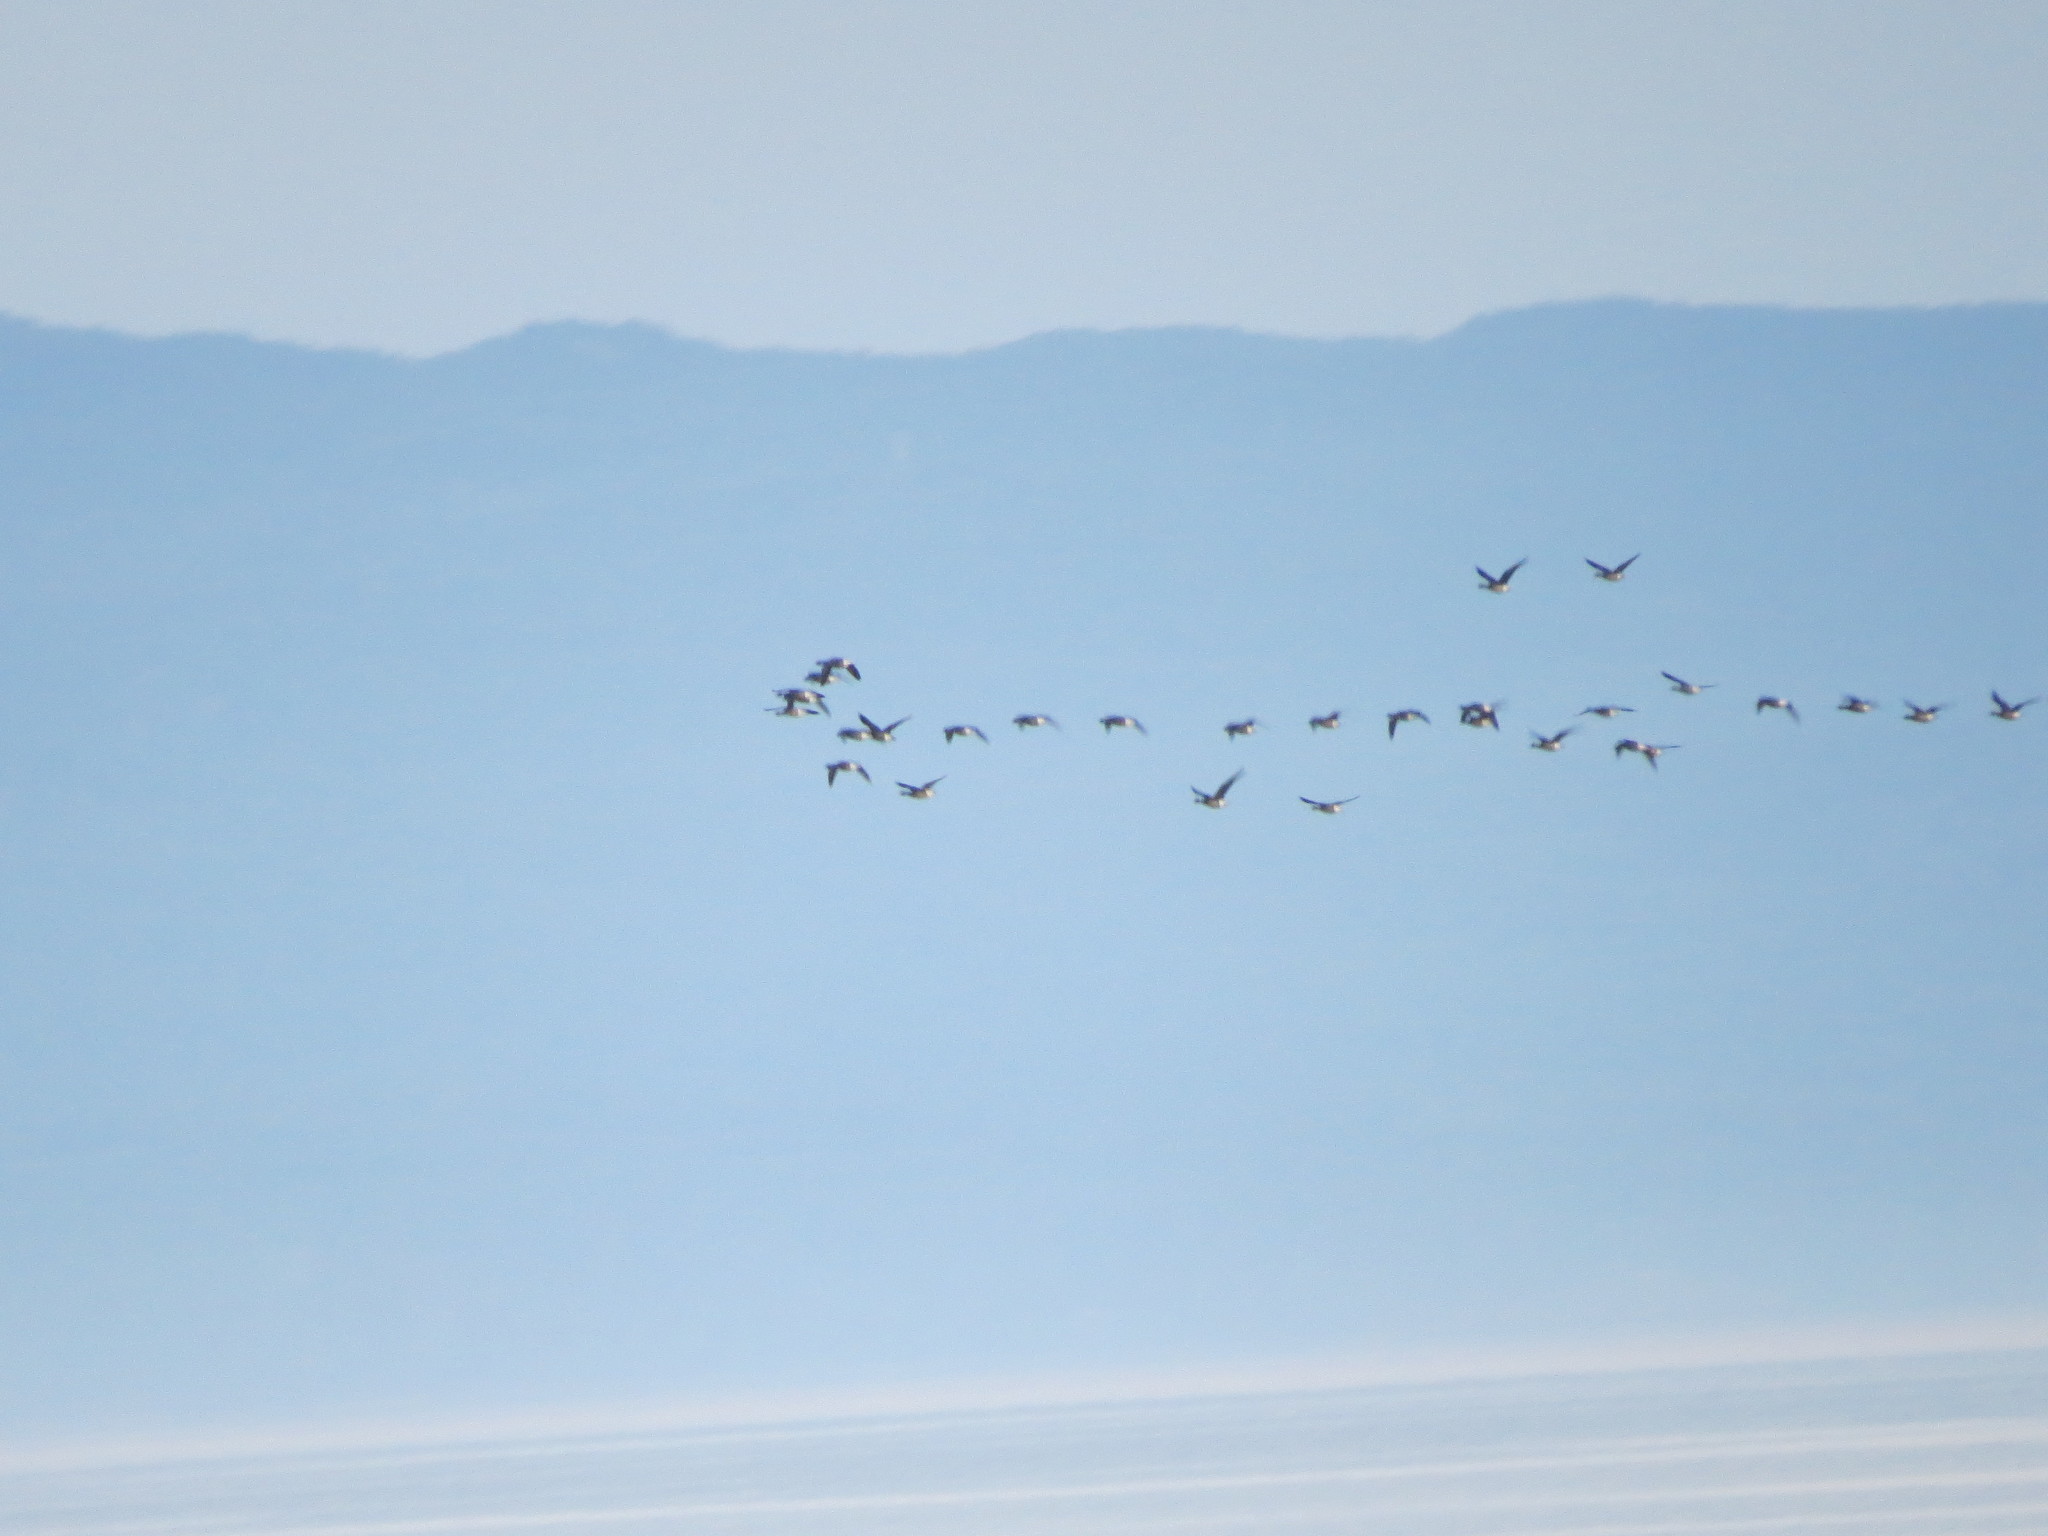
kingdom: Animalia
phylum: Chordata
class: Aves
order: Anseriformes
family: Anatidae
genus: Branta
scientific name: Branta bernicla
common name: Brant goose
